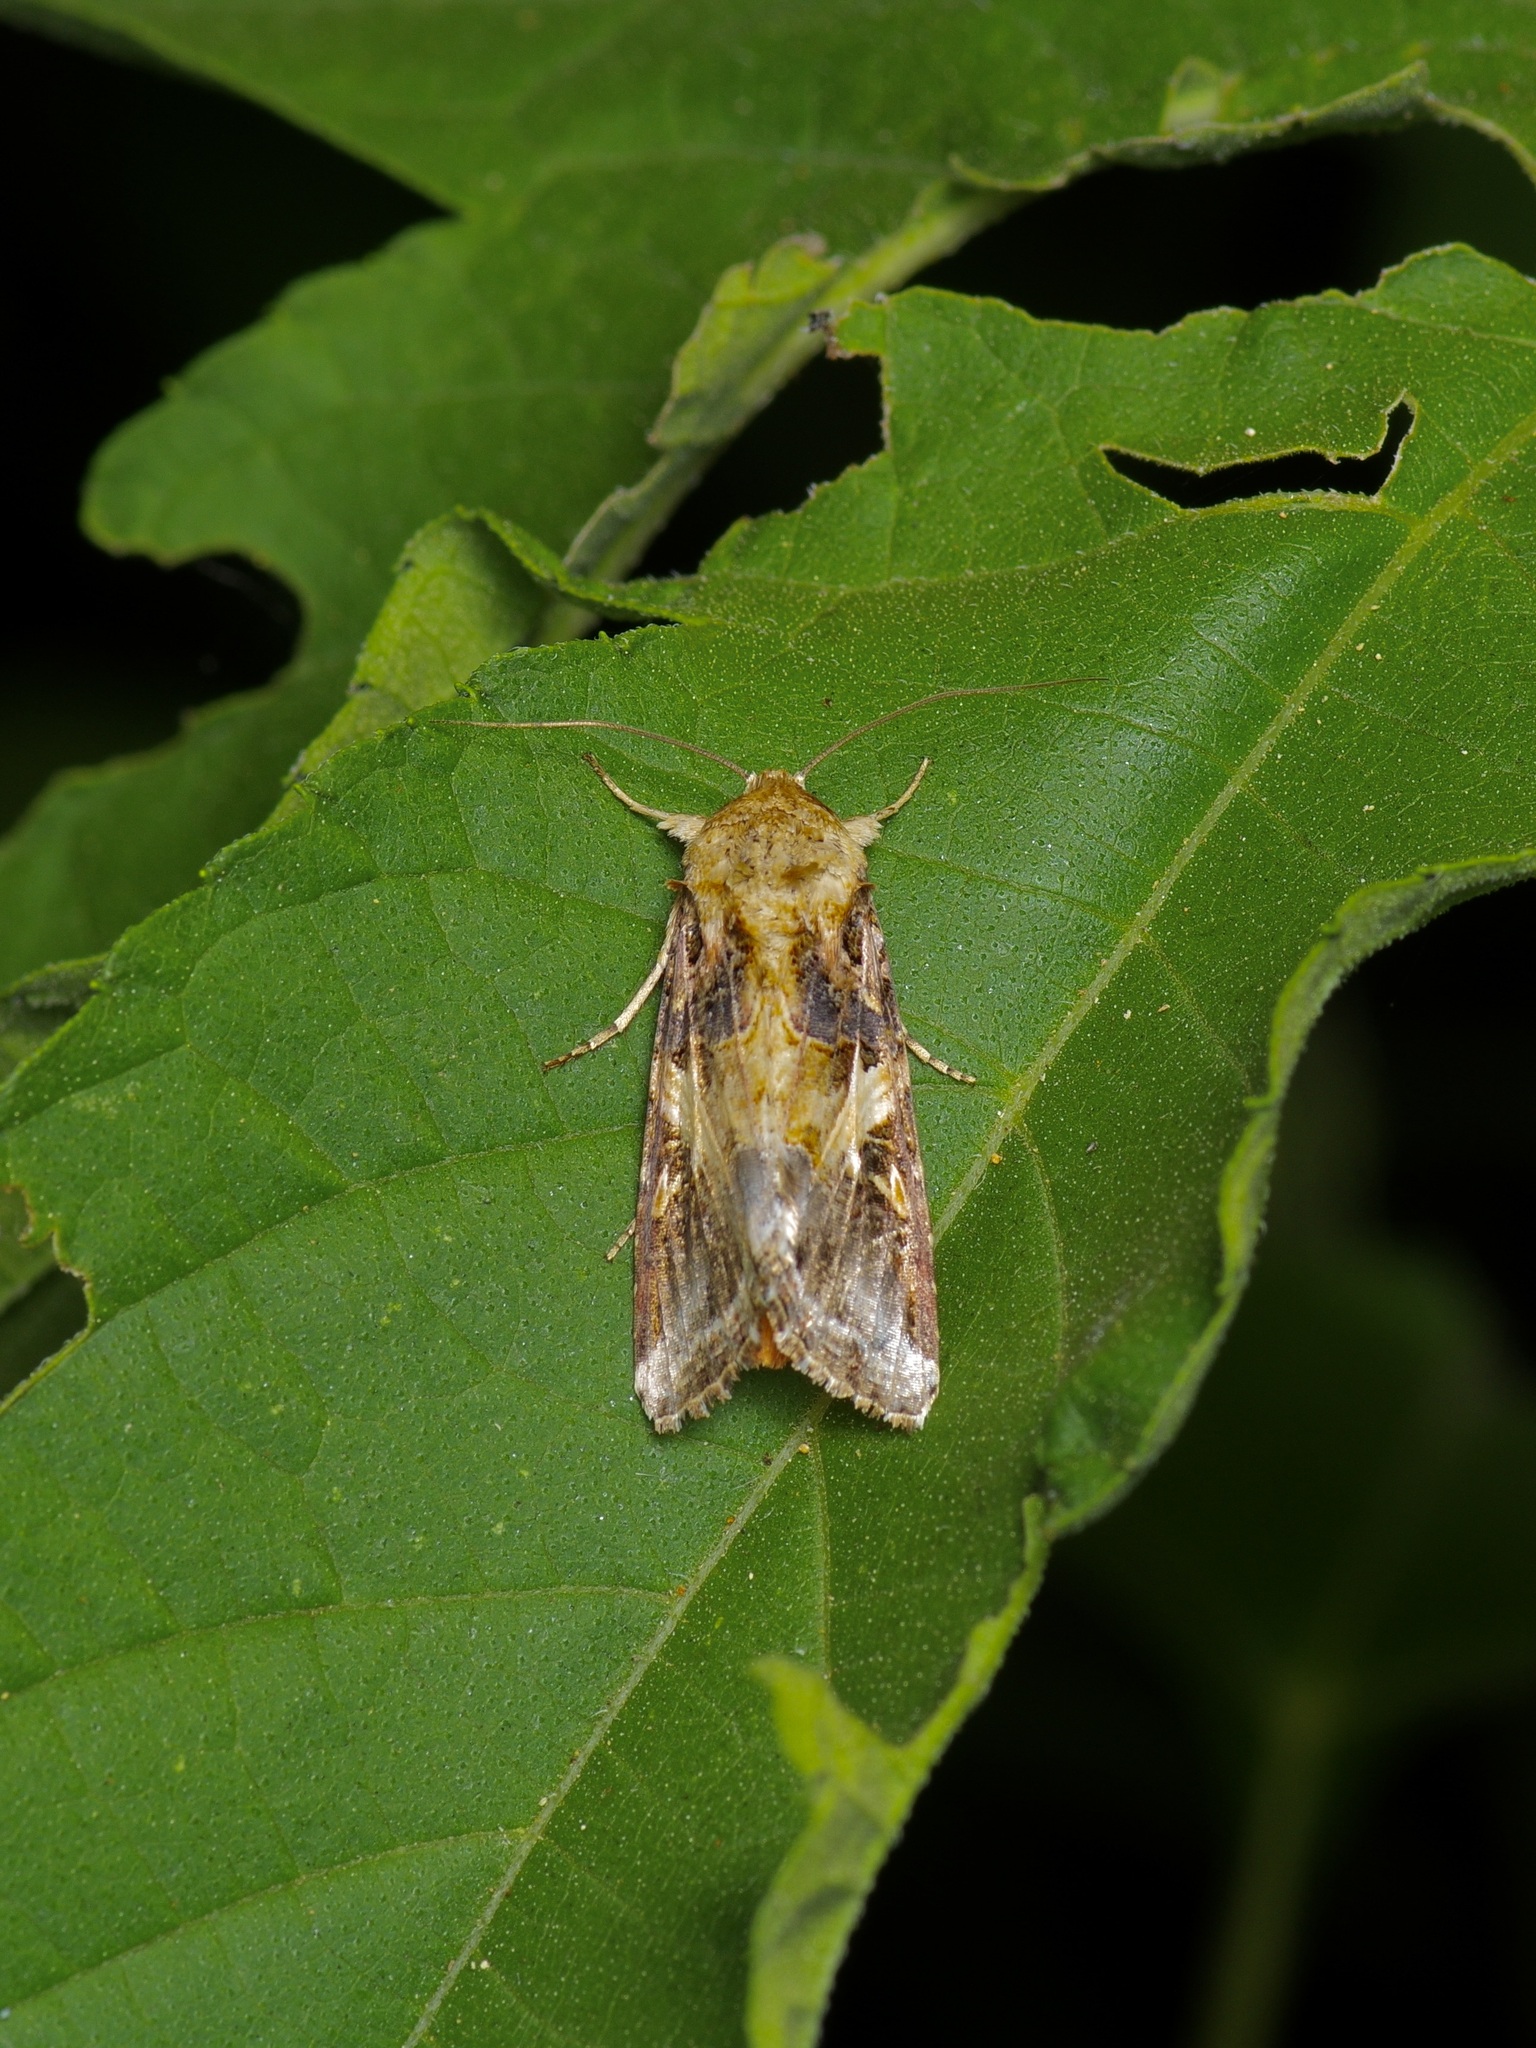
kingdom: Animalia
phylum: Arthropoda
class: Insecta
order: Lepidoptera
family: Noctuidae
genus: Spodoptera
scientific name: Spodoptera latifascia
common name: Velvet armyworm moth
